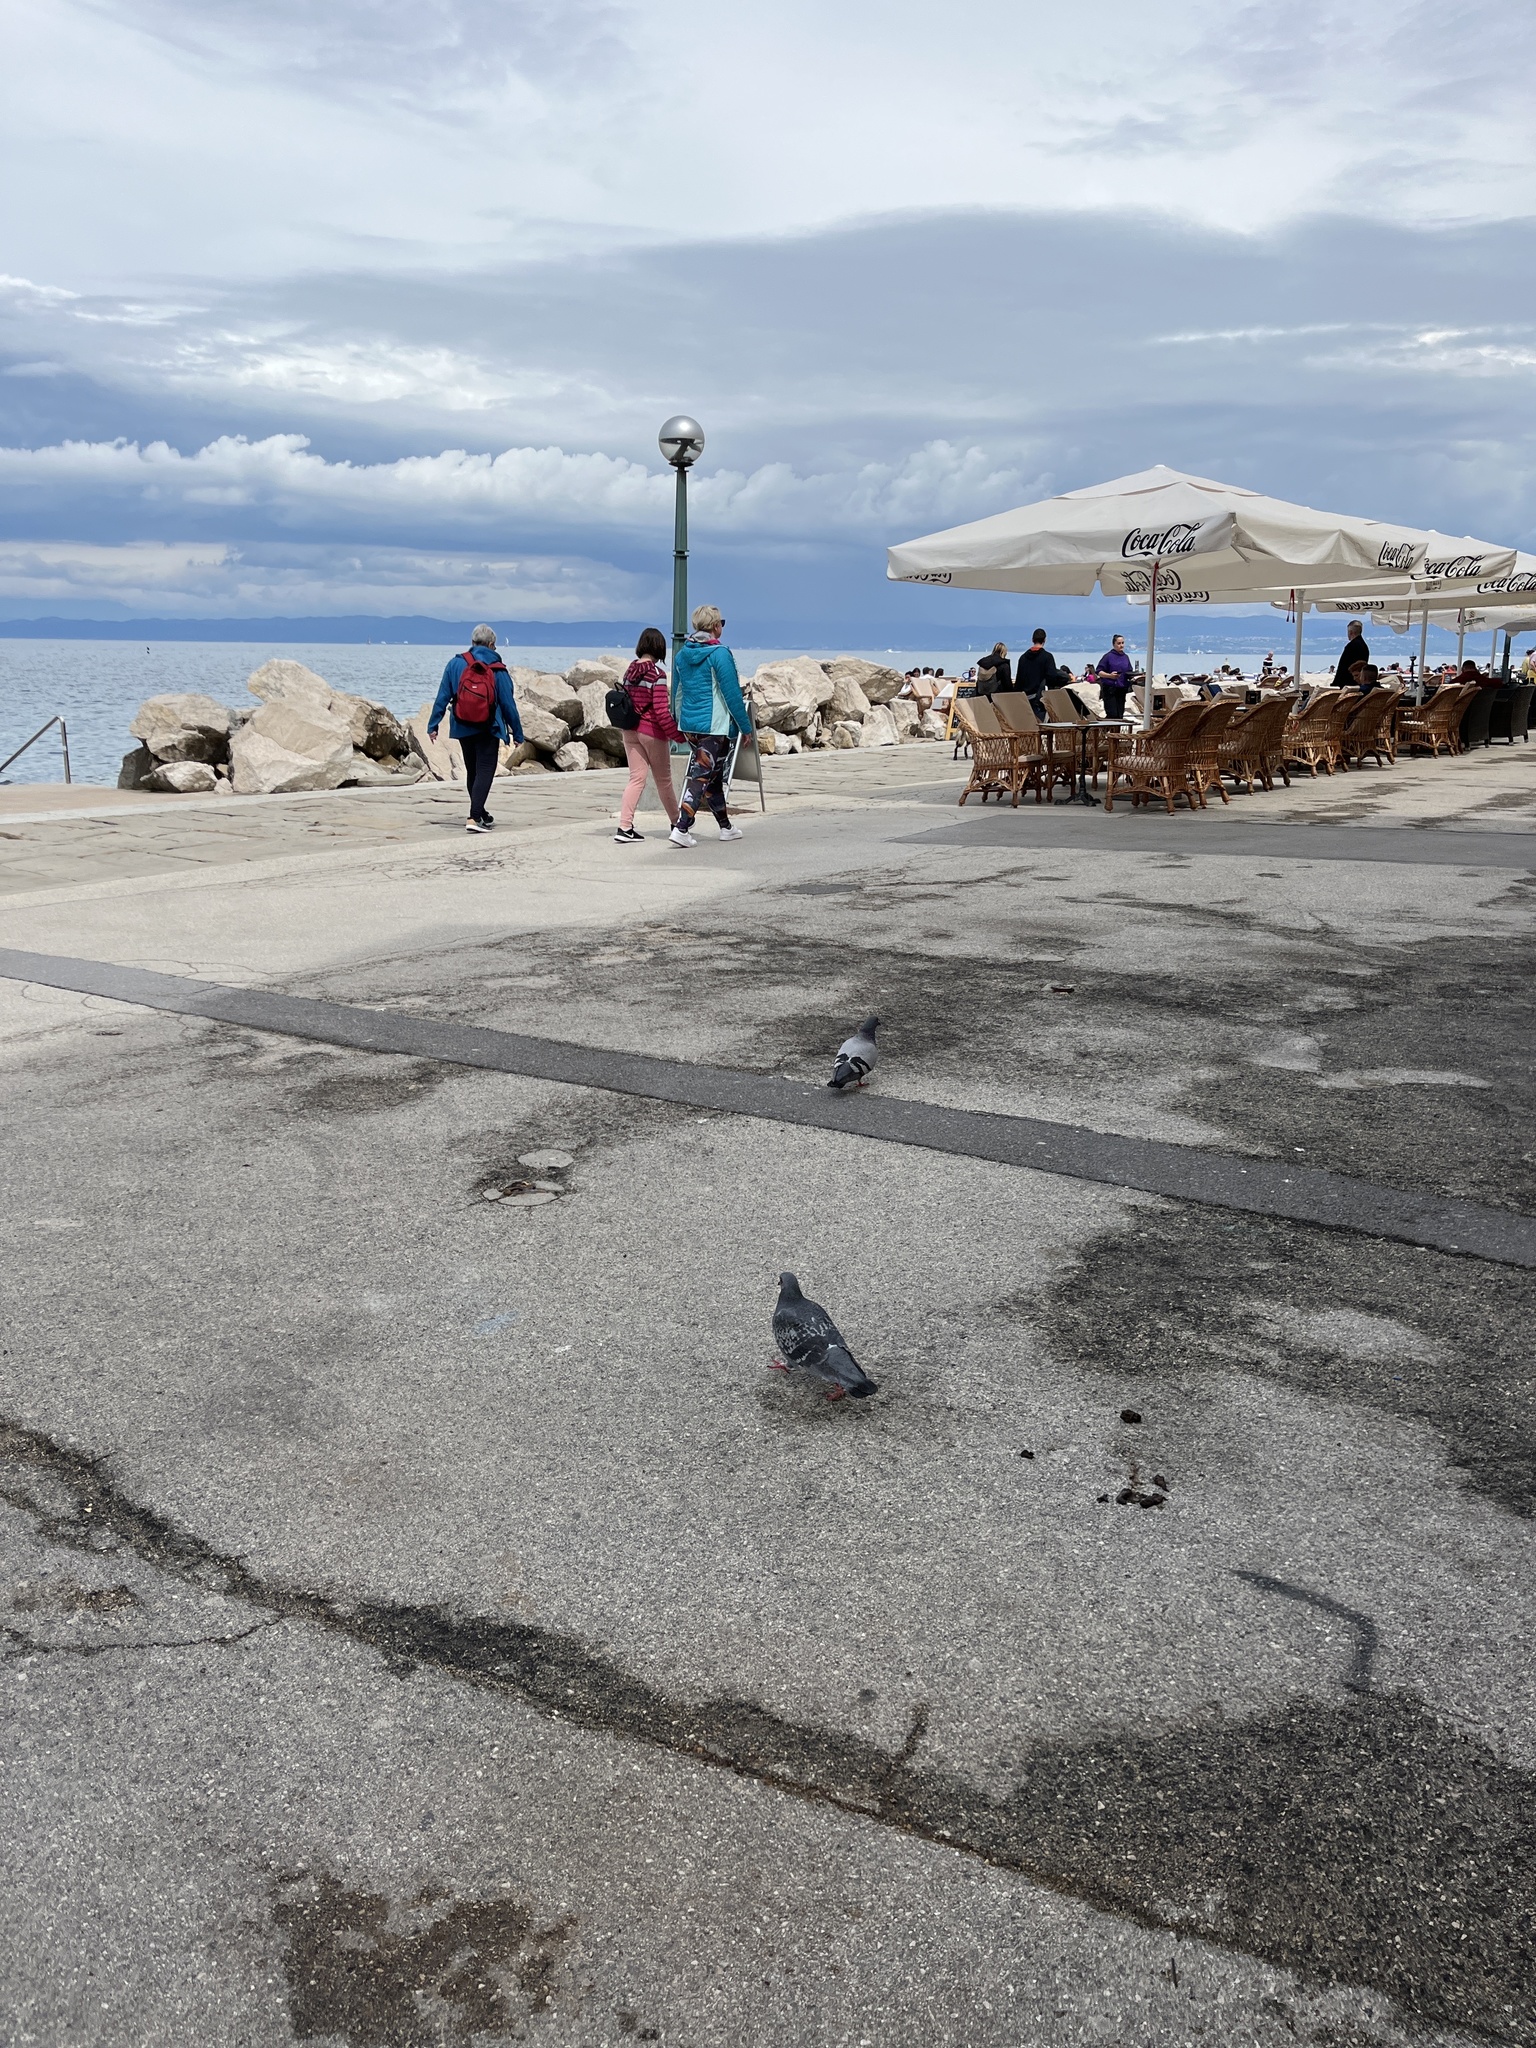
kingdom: Animalia
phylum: Chordata
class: Aves
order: Columbiformes
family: Columbidae
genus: Columba
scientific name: Columba livia
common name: Rock pigeon
